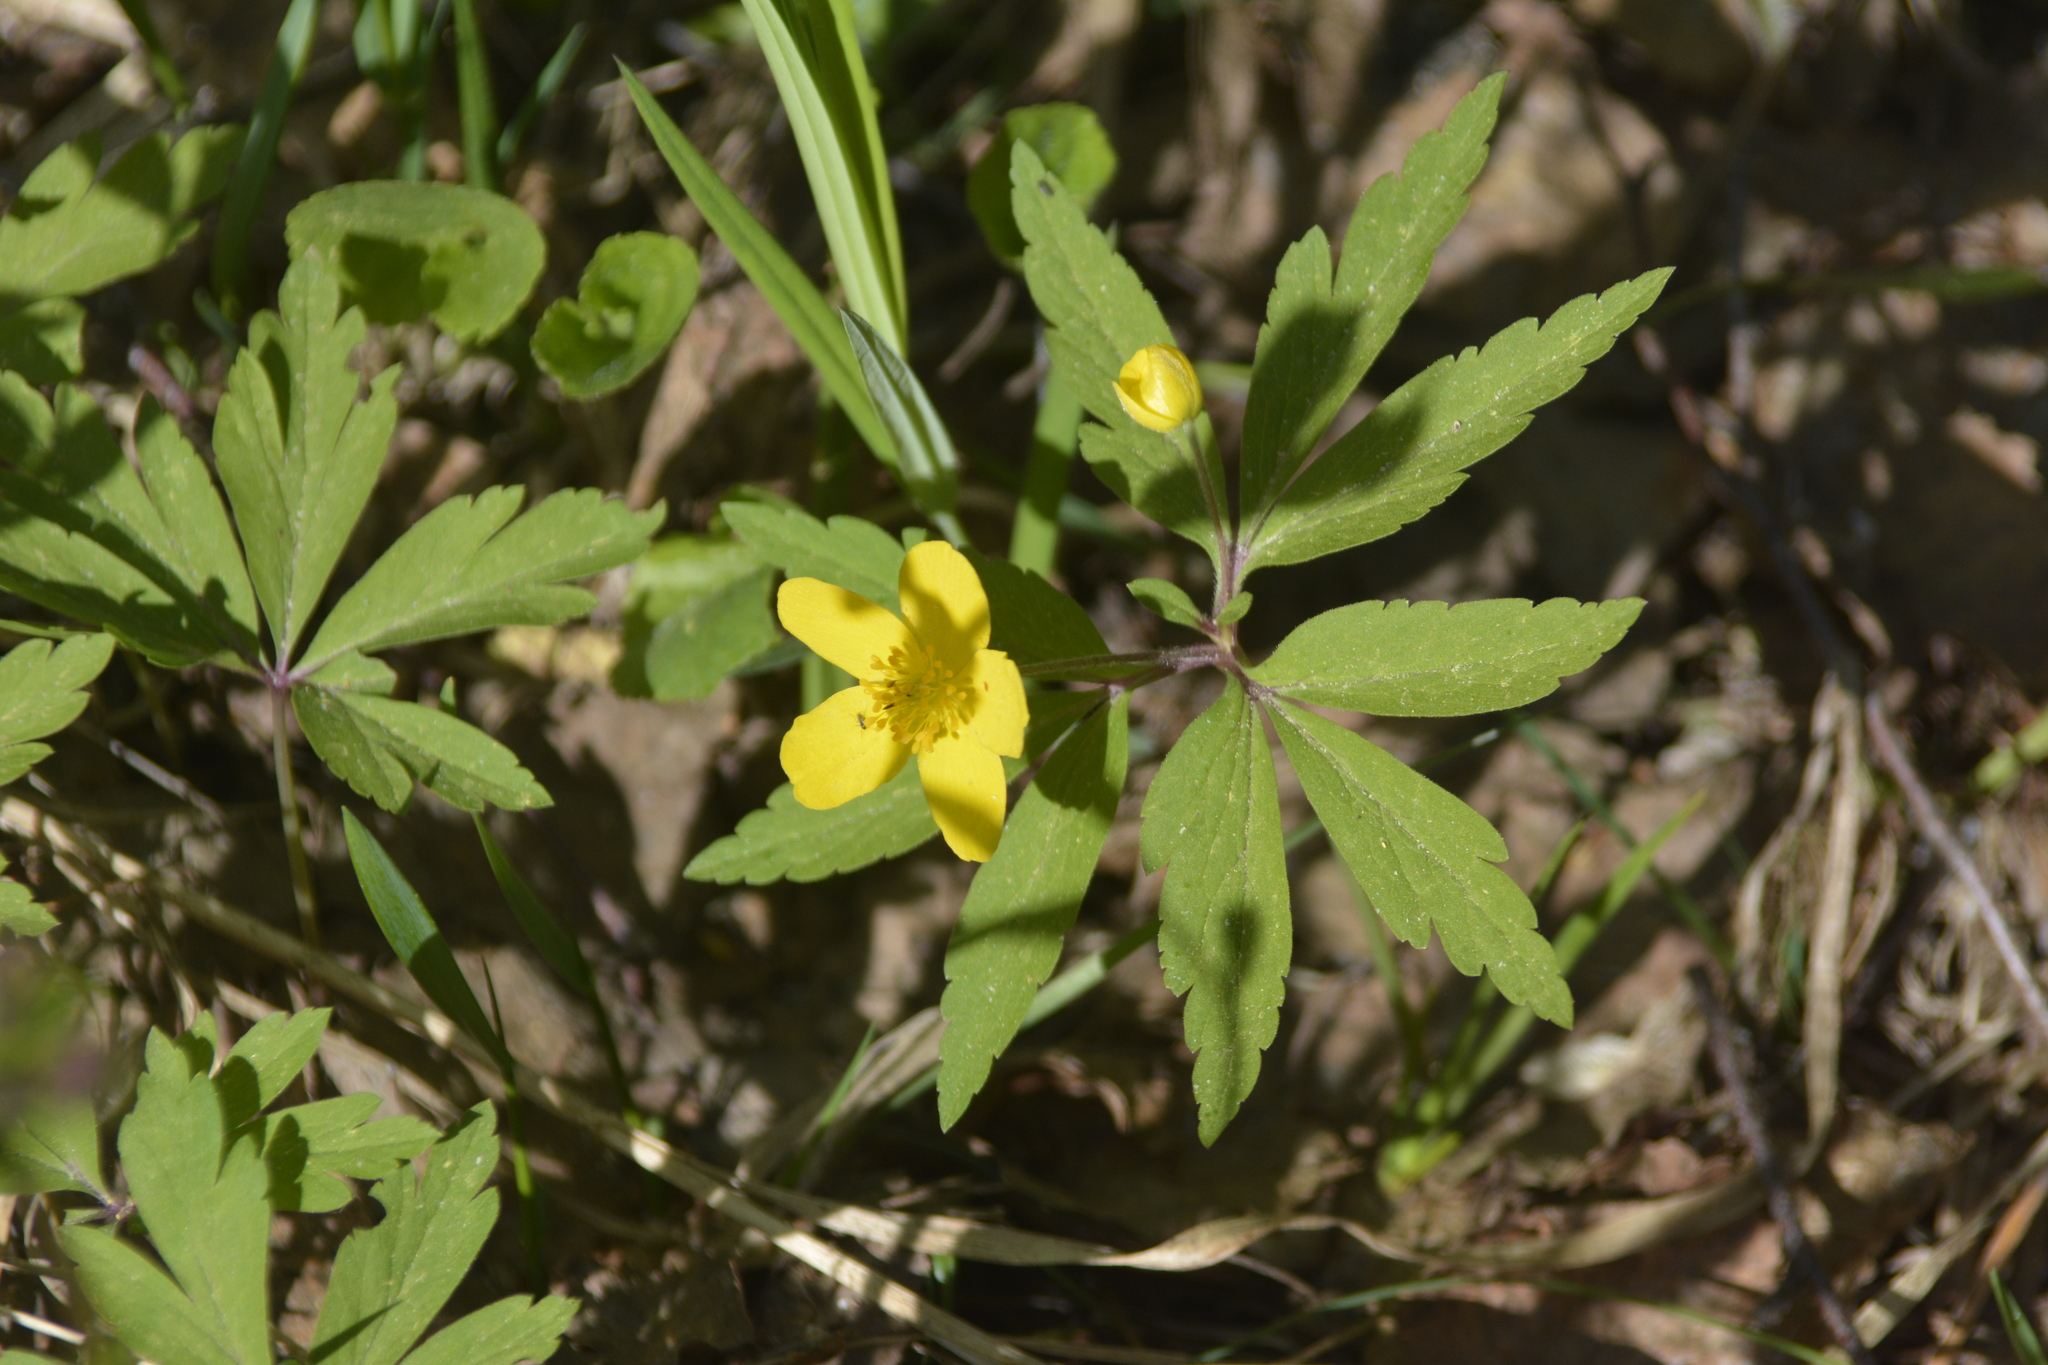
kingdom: Plantae
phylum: Tracheophyta
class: Magnoliopsida
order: Ranunculales
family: Ranunculaceae
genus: Anemone
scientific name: Anemone ranunculoides
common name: Yellow anemone
